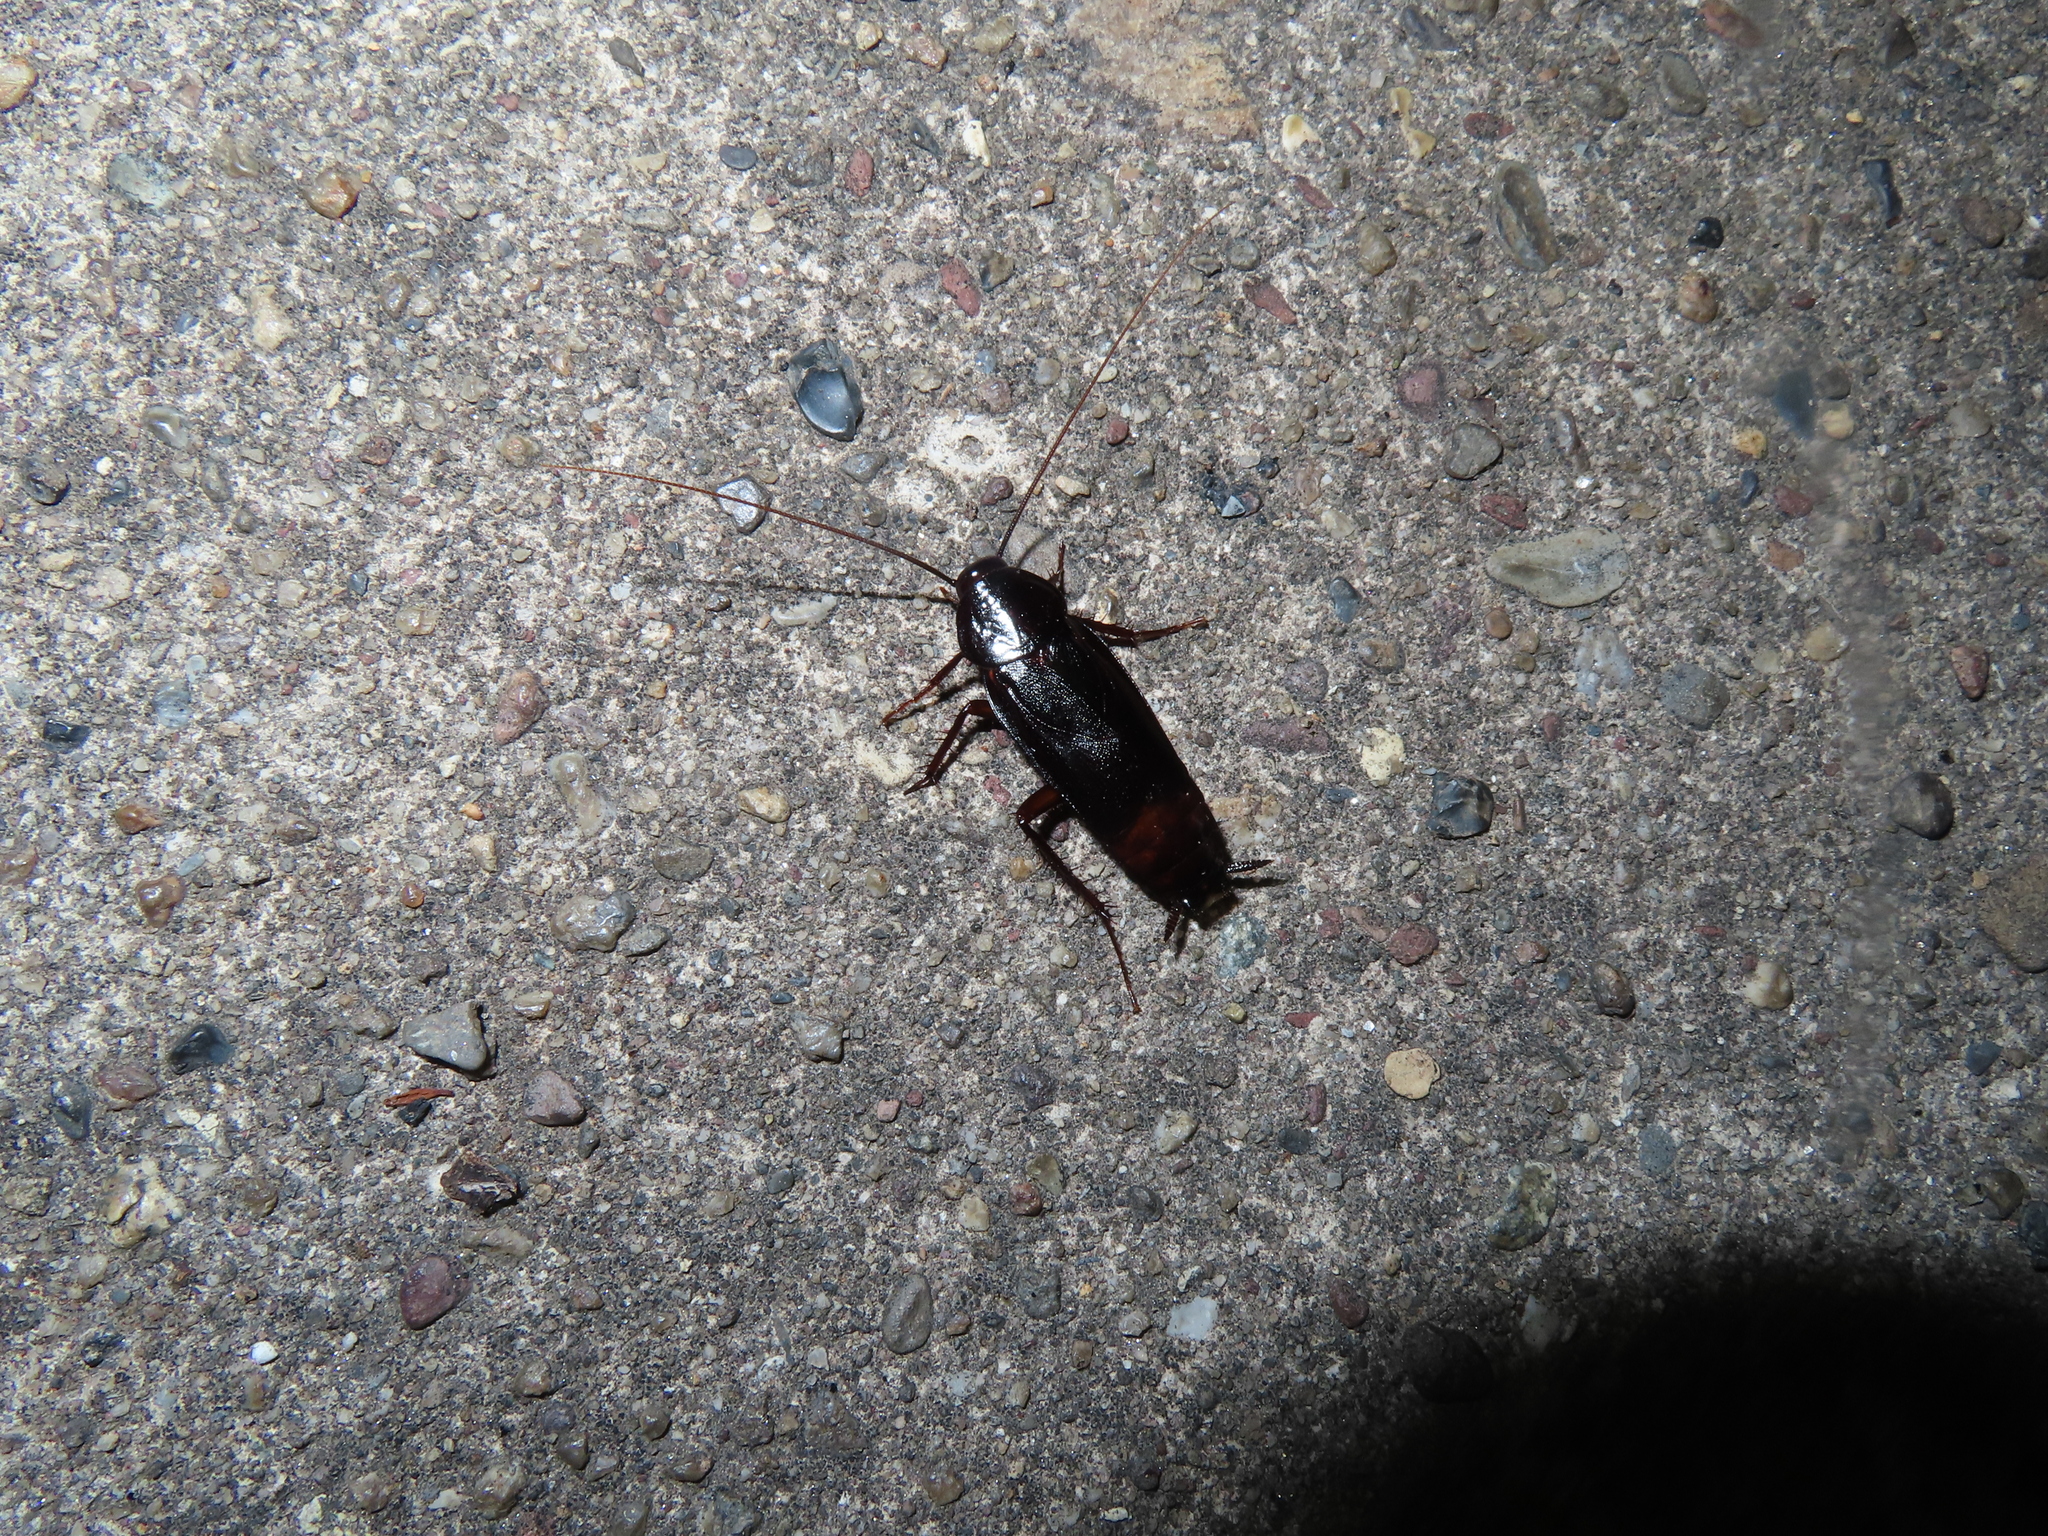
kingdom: Animalia
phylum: Arthropoda
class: Insecta
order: Blattodea
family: Blattidae
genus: Blatta
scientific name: Blatta orientalis
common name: Oriental cockroach
